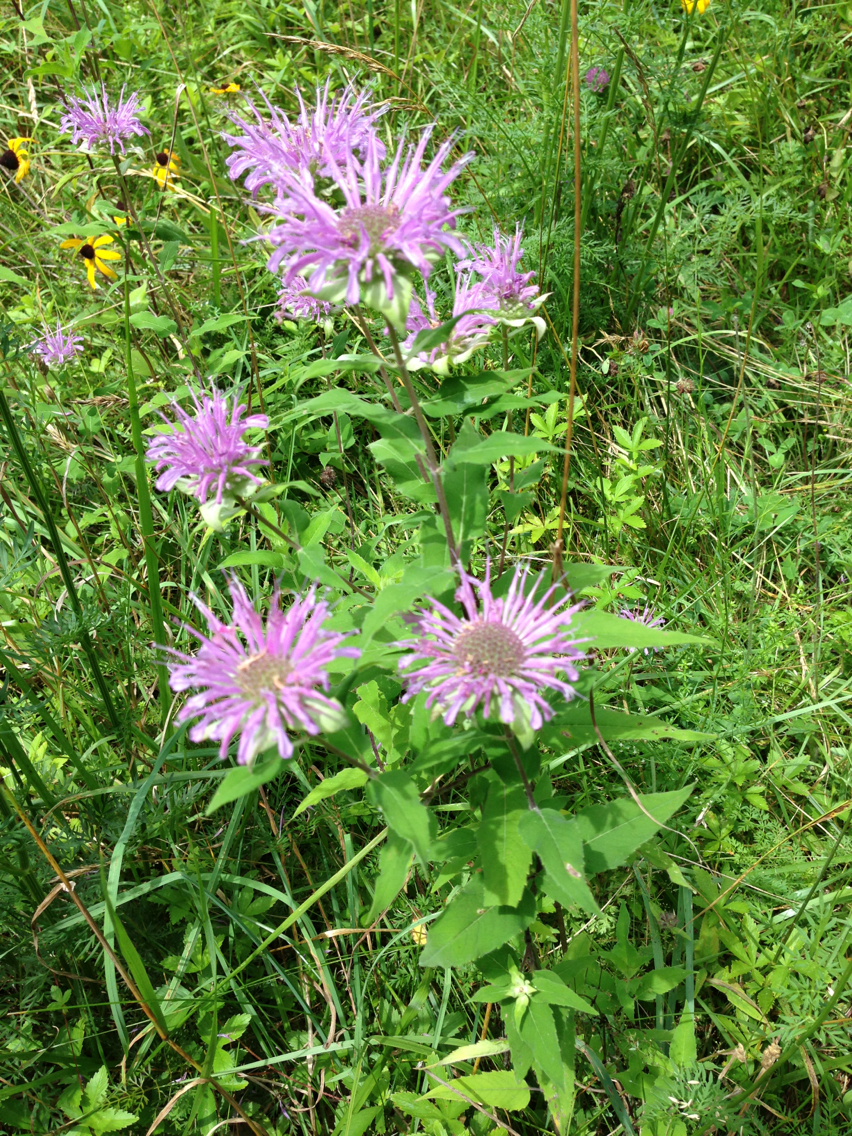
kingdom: Plantae
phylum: Tracheophyta
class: Magnoliopsida
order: Lamiales
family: Lamiaceae
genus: Monarda
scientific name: Monarda fistulosa
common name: Purple beebalm
